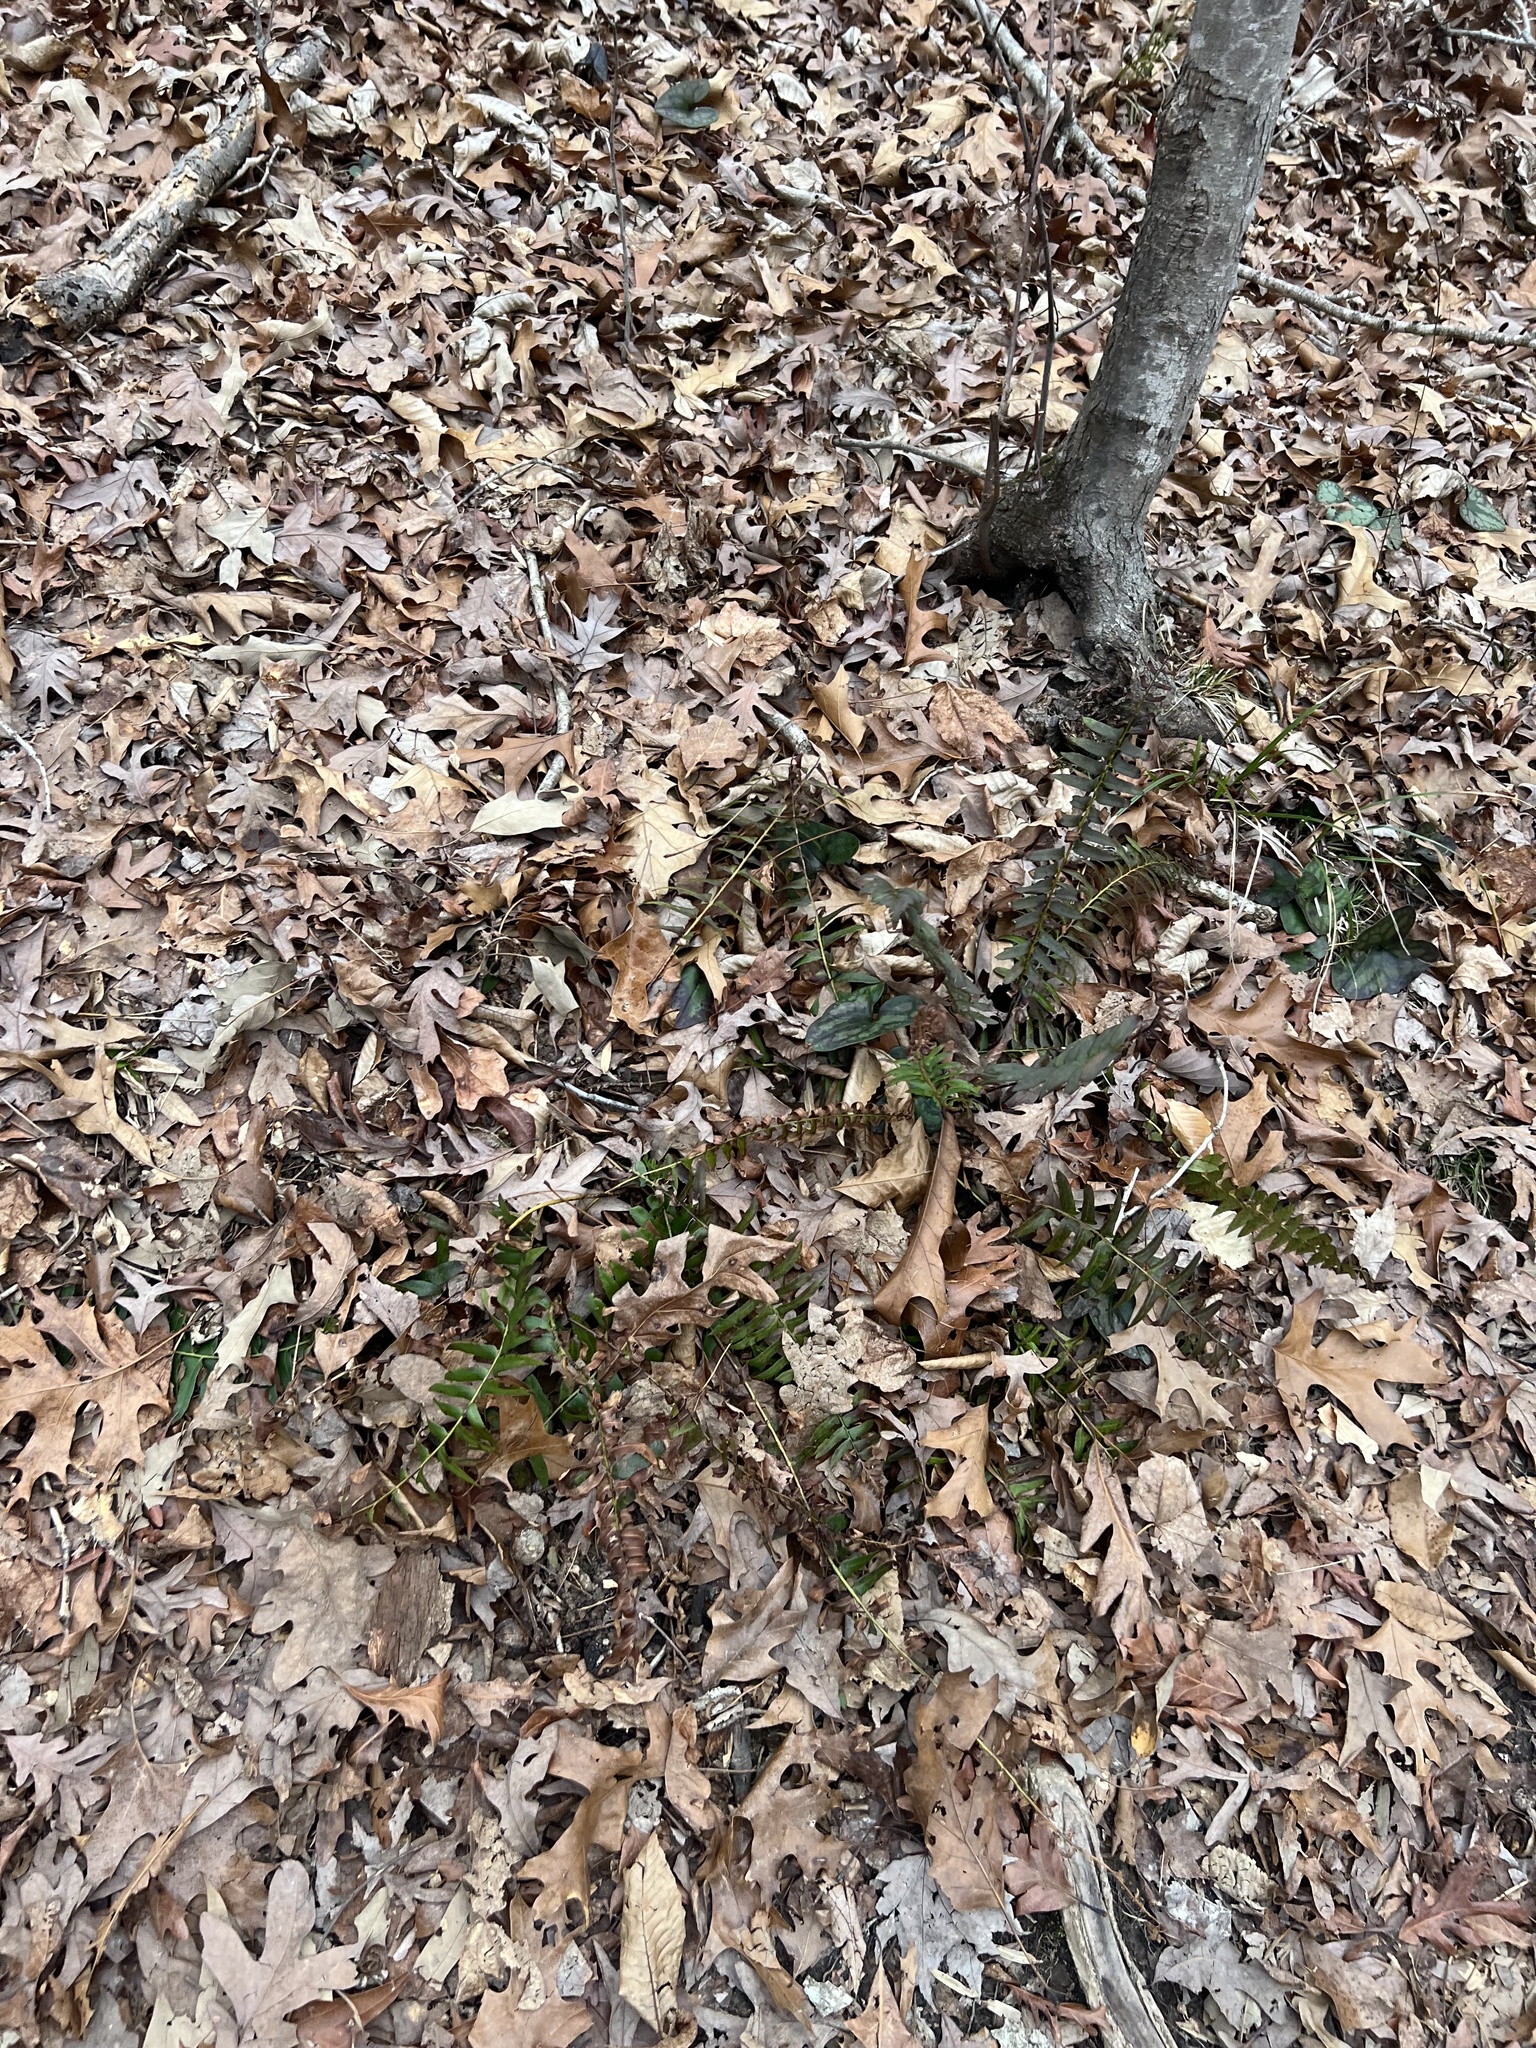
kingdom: Plantae
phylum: Tracheophyta
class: Polypodiopsida
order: Polypodiales
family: Dryopteridaceae
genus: Polystichum
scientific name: Polystichum acrostichoides
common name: Christmas fern
